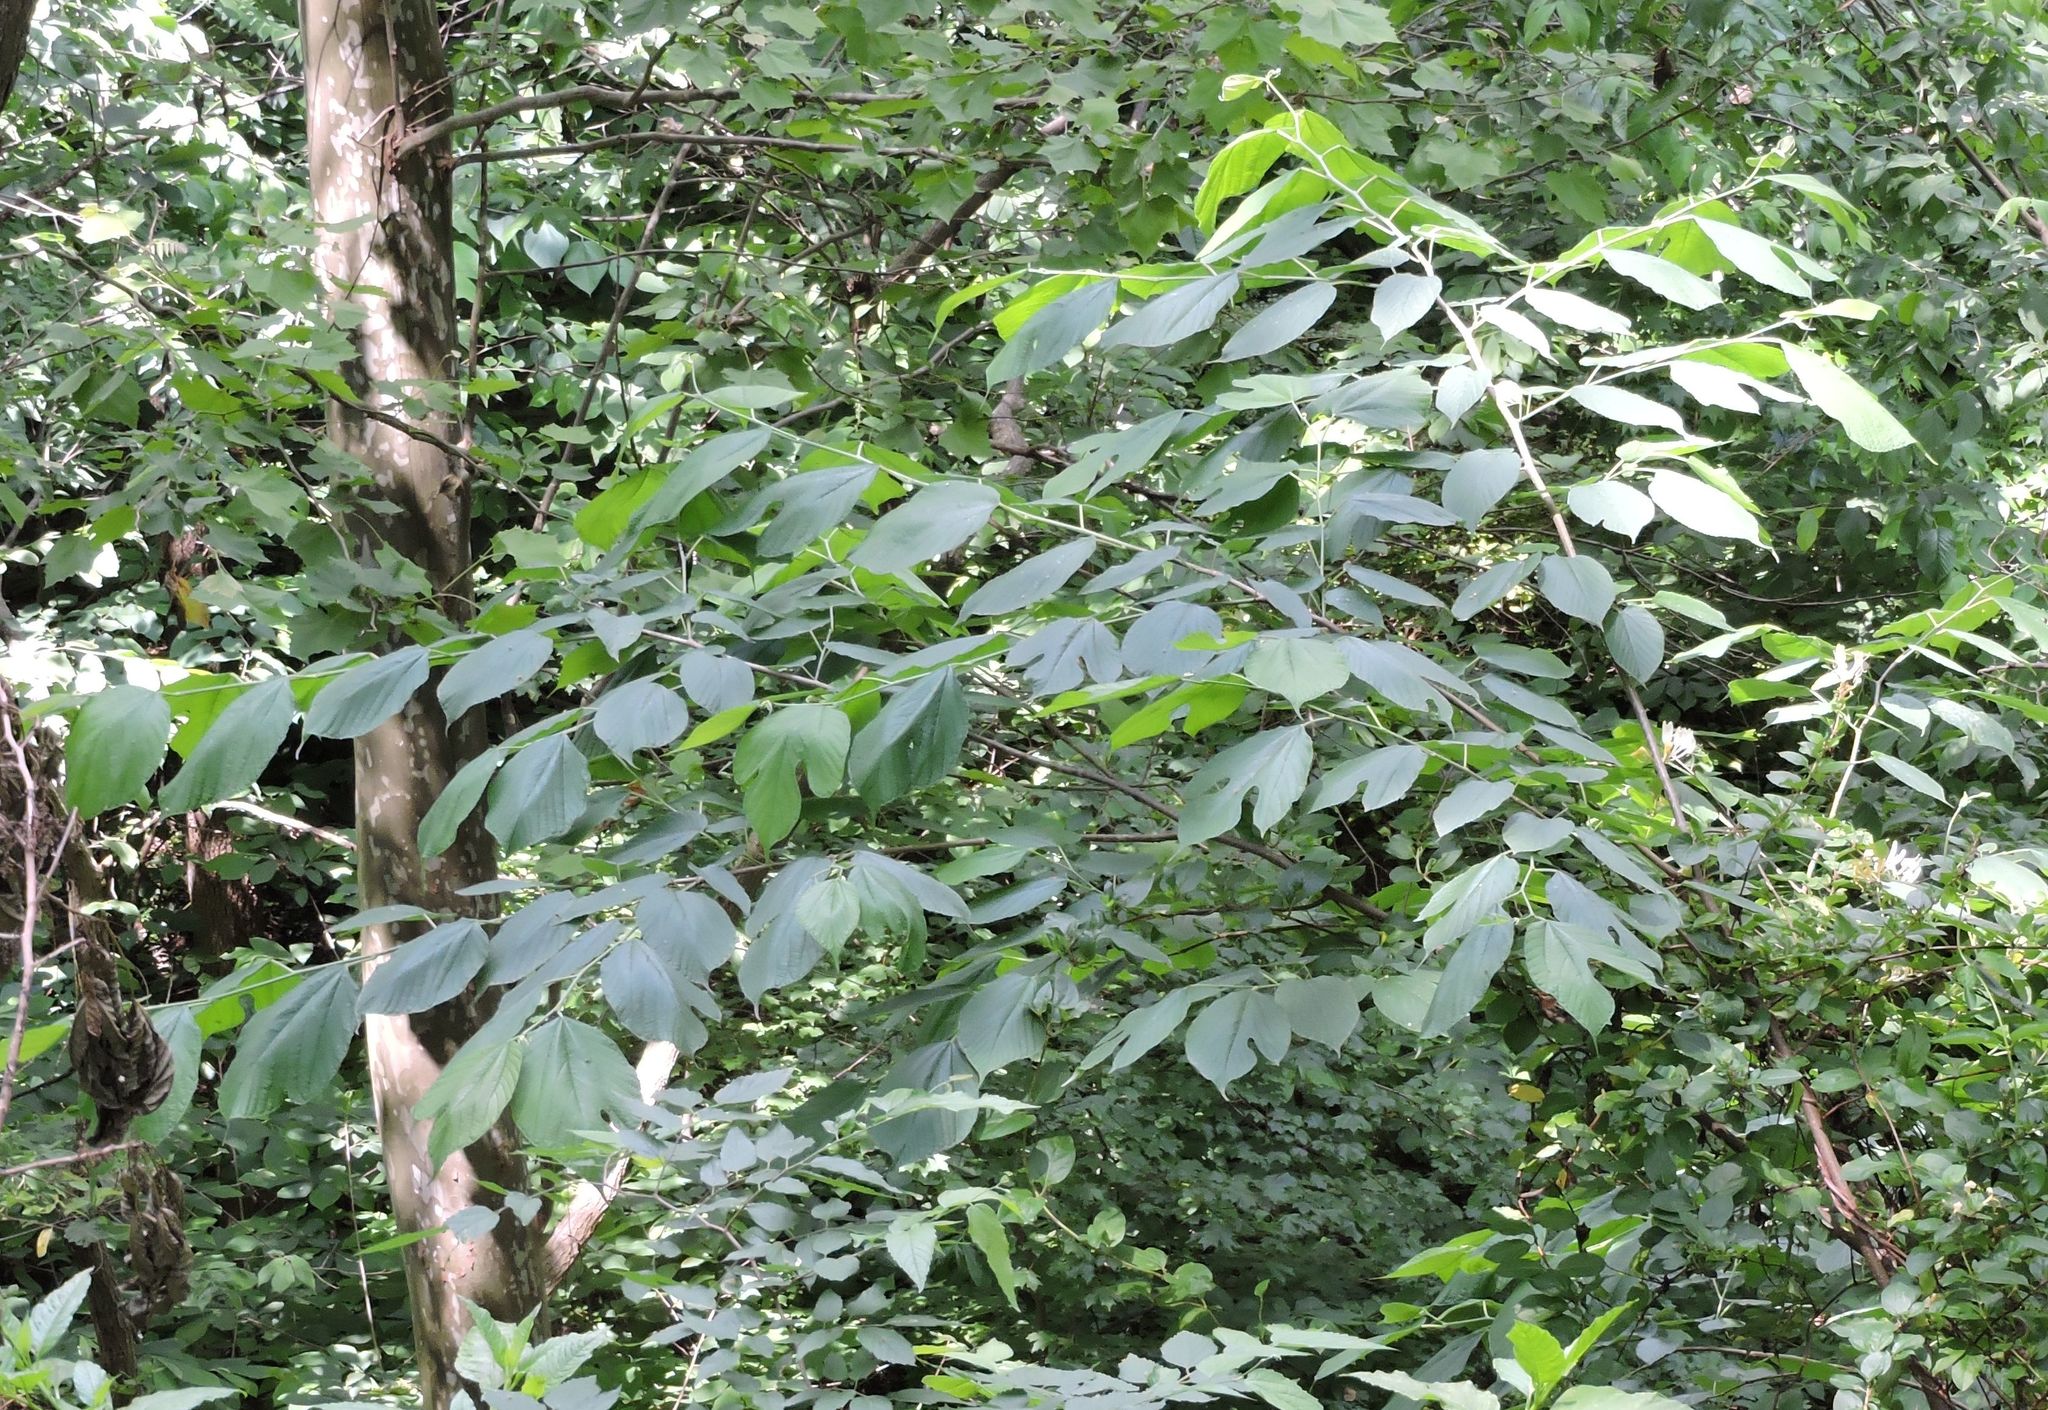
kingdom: Plantae
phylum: Tracheophyta
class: Magnoliopsida
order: Laurales
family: Lauraceae
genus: Sassafras
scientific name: Sassafras albidum
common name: Sassafras
